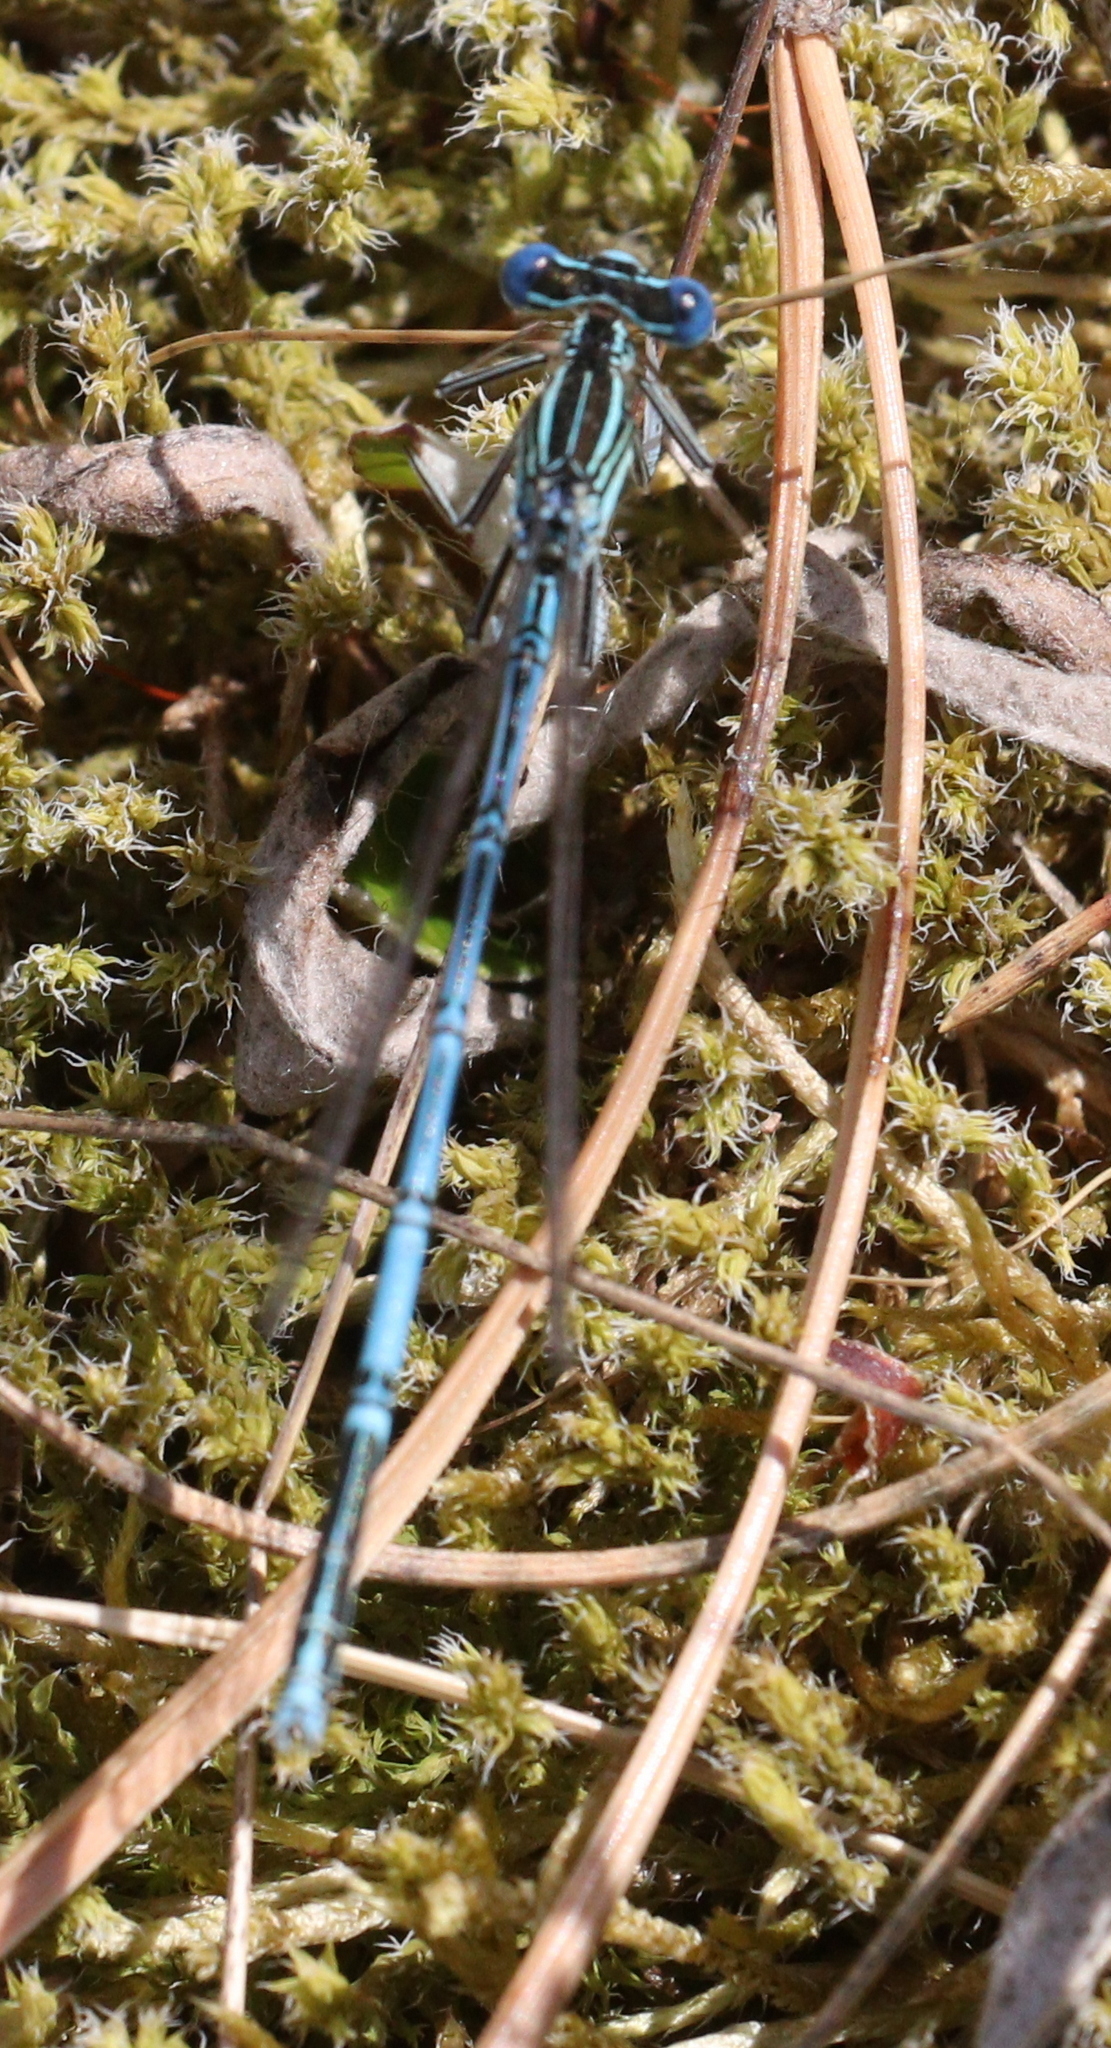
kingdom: Animalia
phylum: Arthropoda
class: Insecta
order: Odonata
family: Platycnemididae
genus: Platycnemis
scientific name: Platycnemis pennipes
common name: White-legged damselfly
